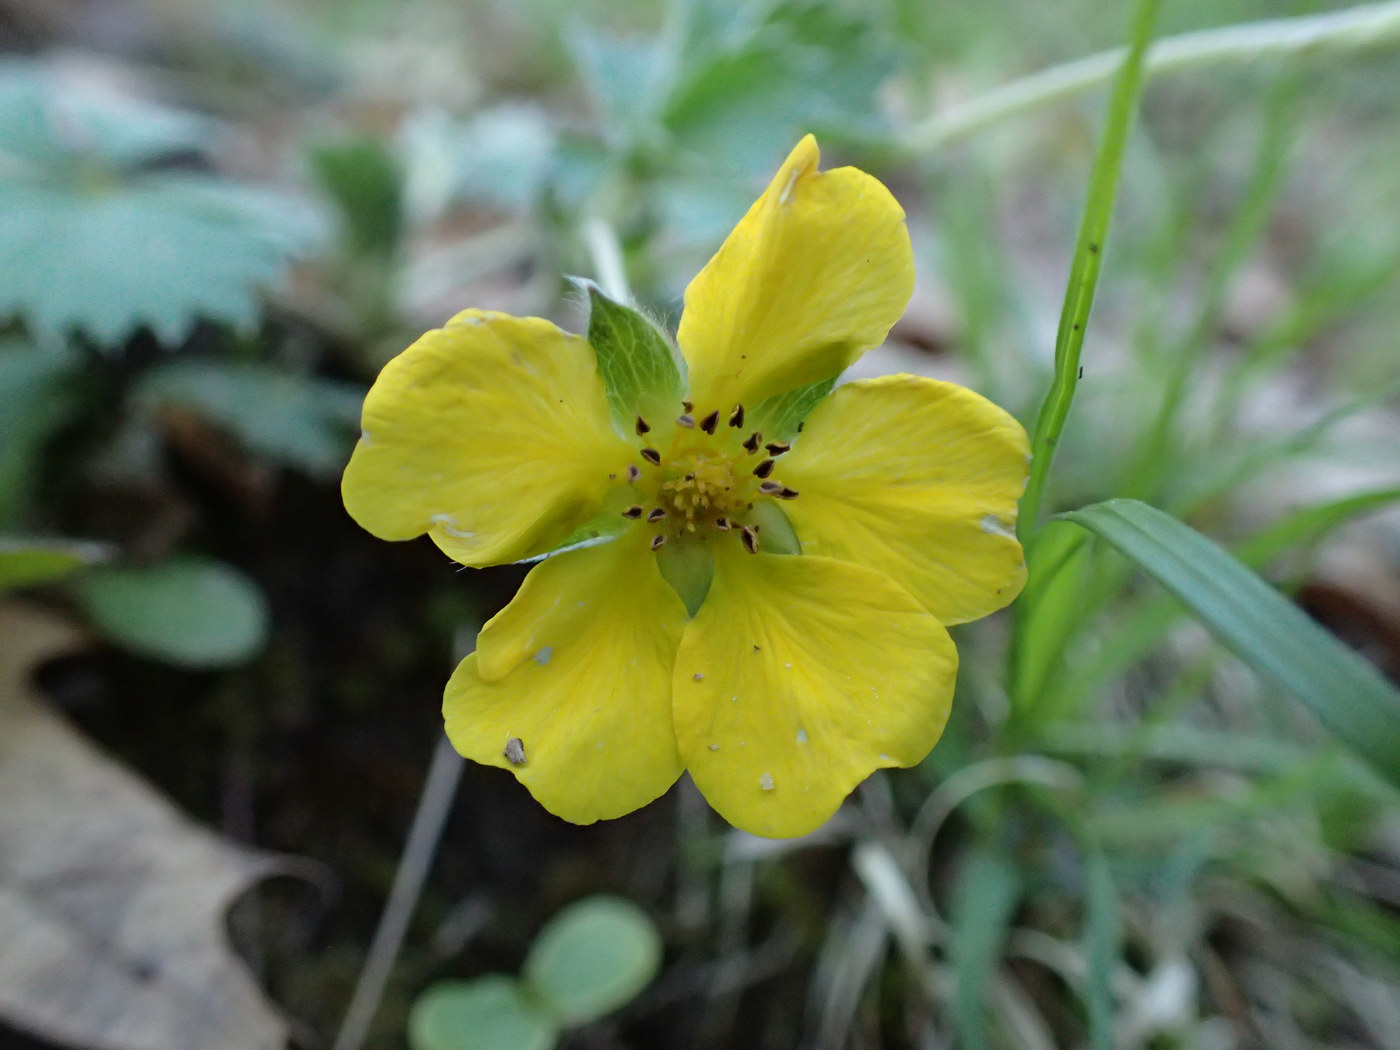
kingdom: Plantae
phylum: Tracheophyta
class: Magnoliopsida
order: Rosales
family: Rosaceae
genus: Potentilla
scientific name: Potentilla canadensis
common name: Canada cinquefoil
